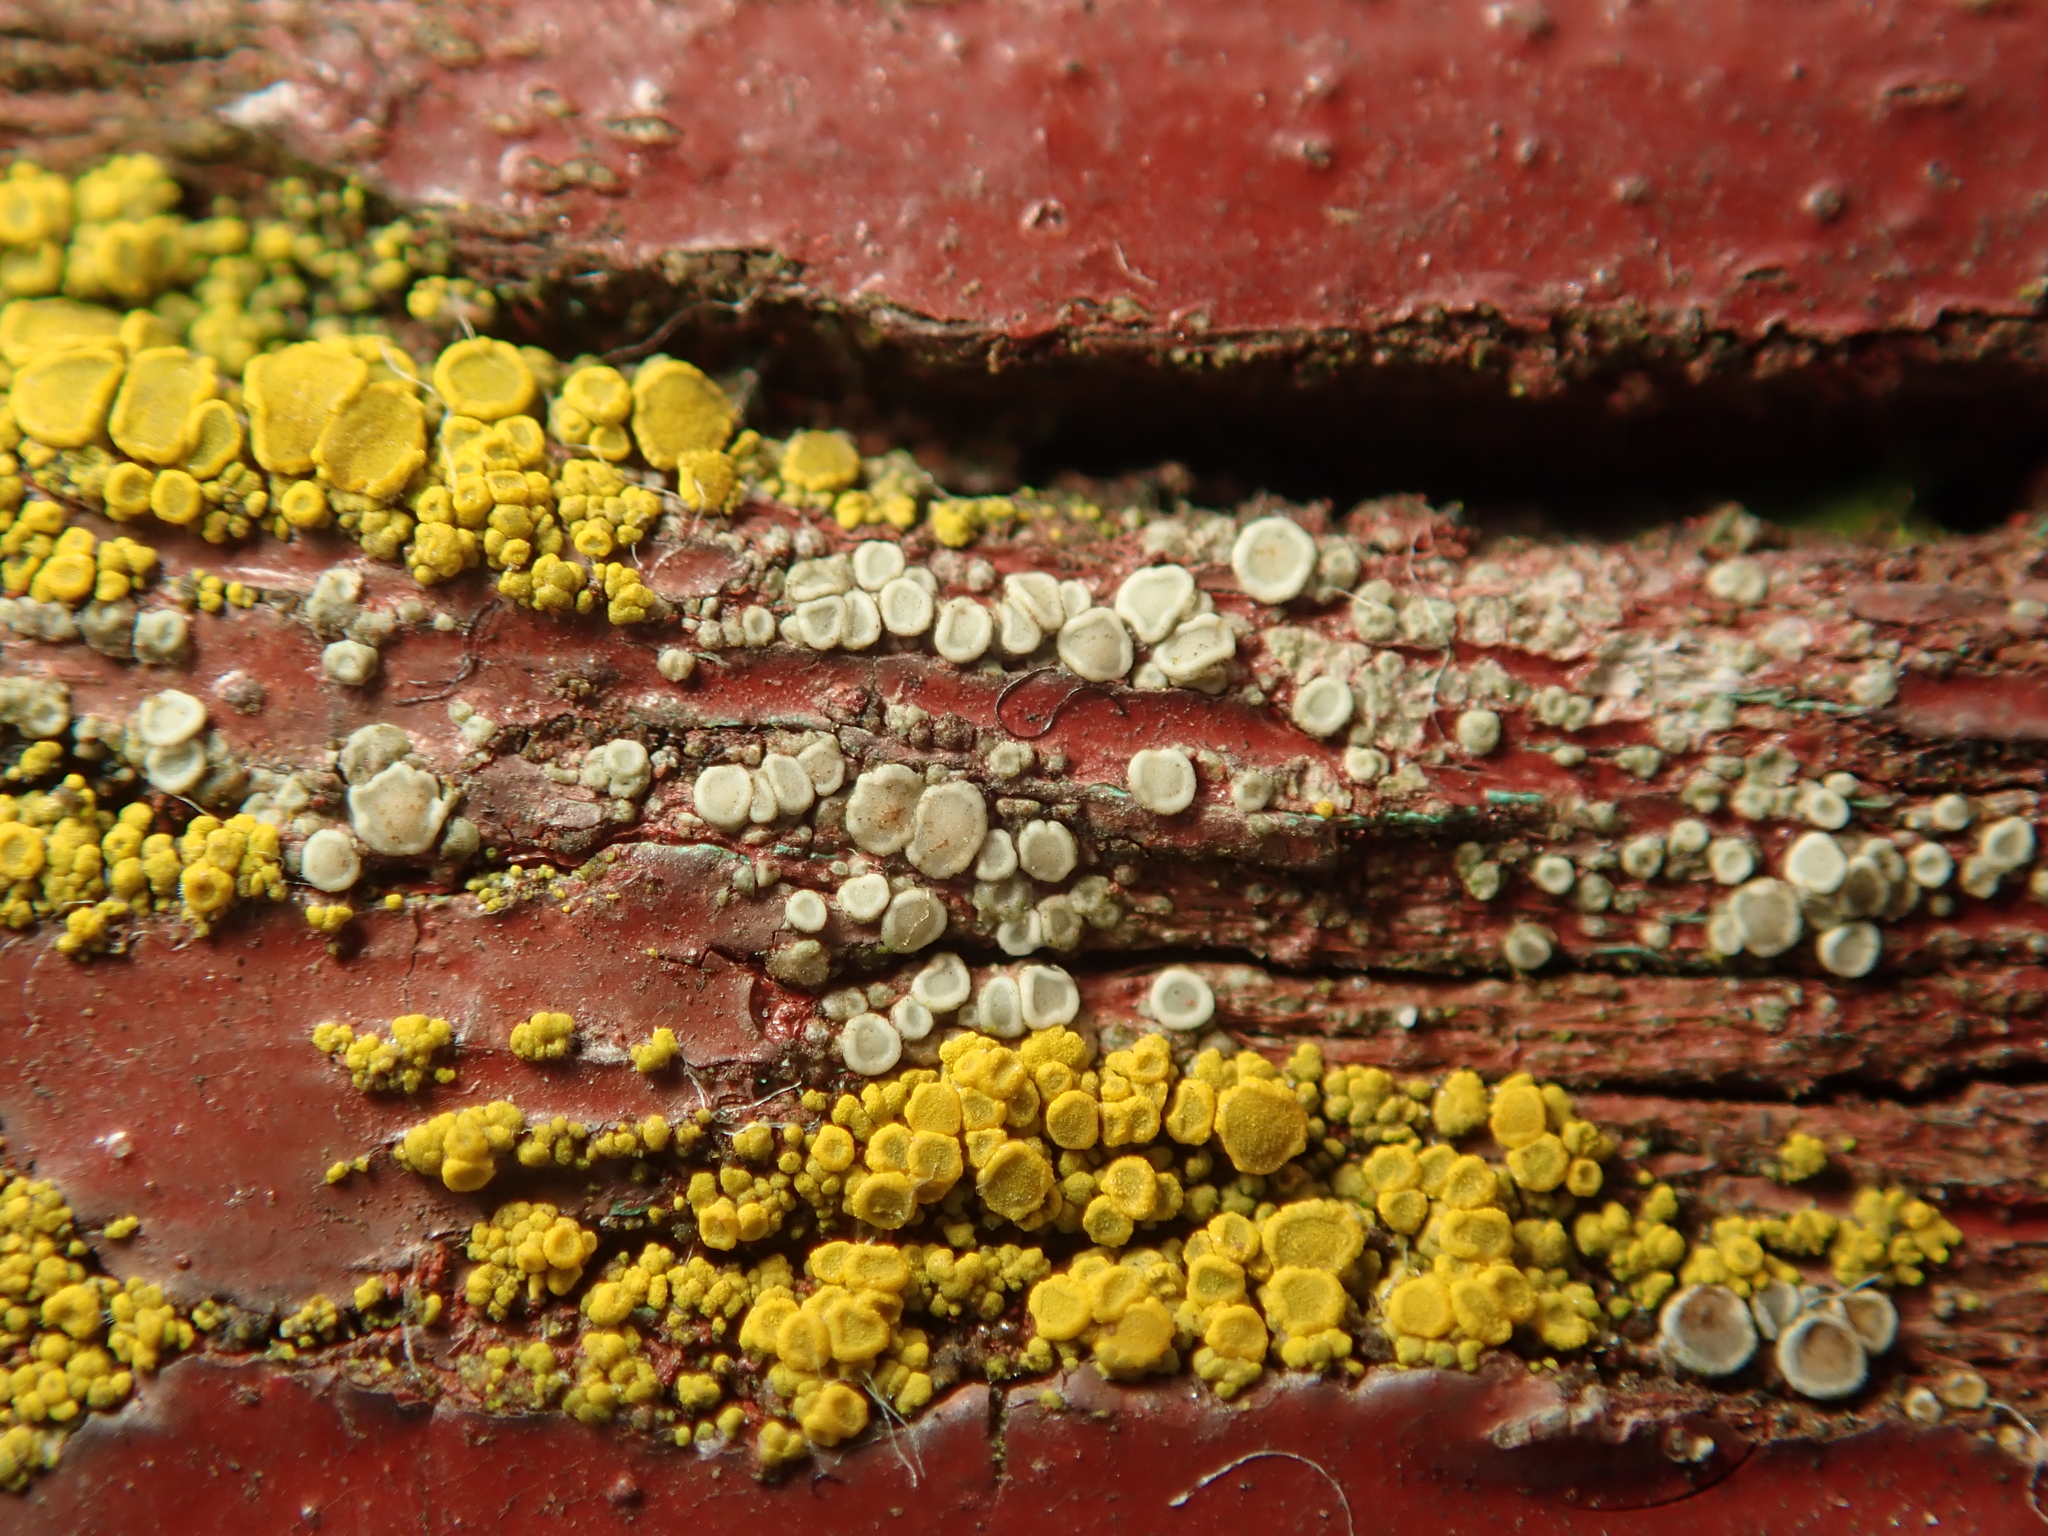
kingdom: Fungi
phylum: Ascomycota
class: Lecanoromycetes
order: Lecanorales
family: Lecanoraceae
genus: Myriolecis
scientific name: Myriolecis
